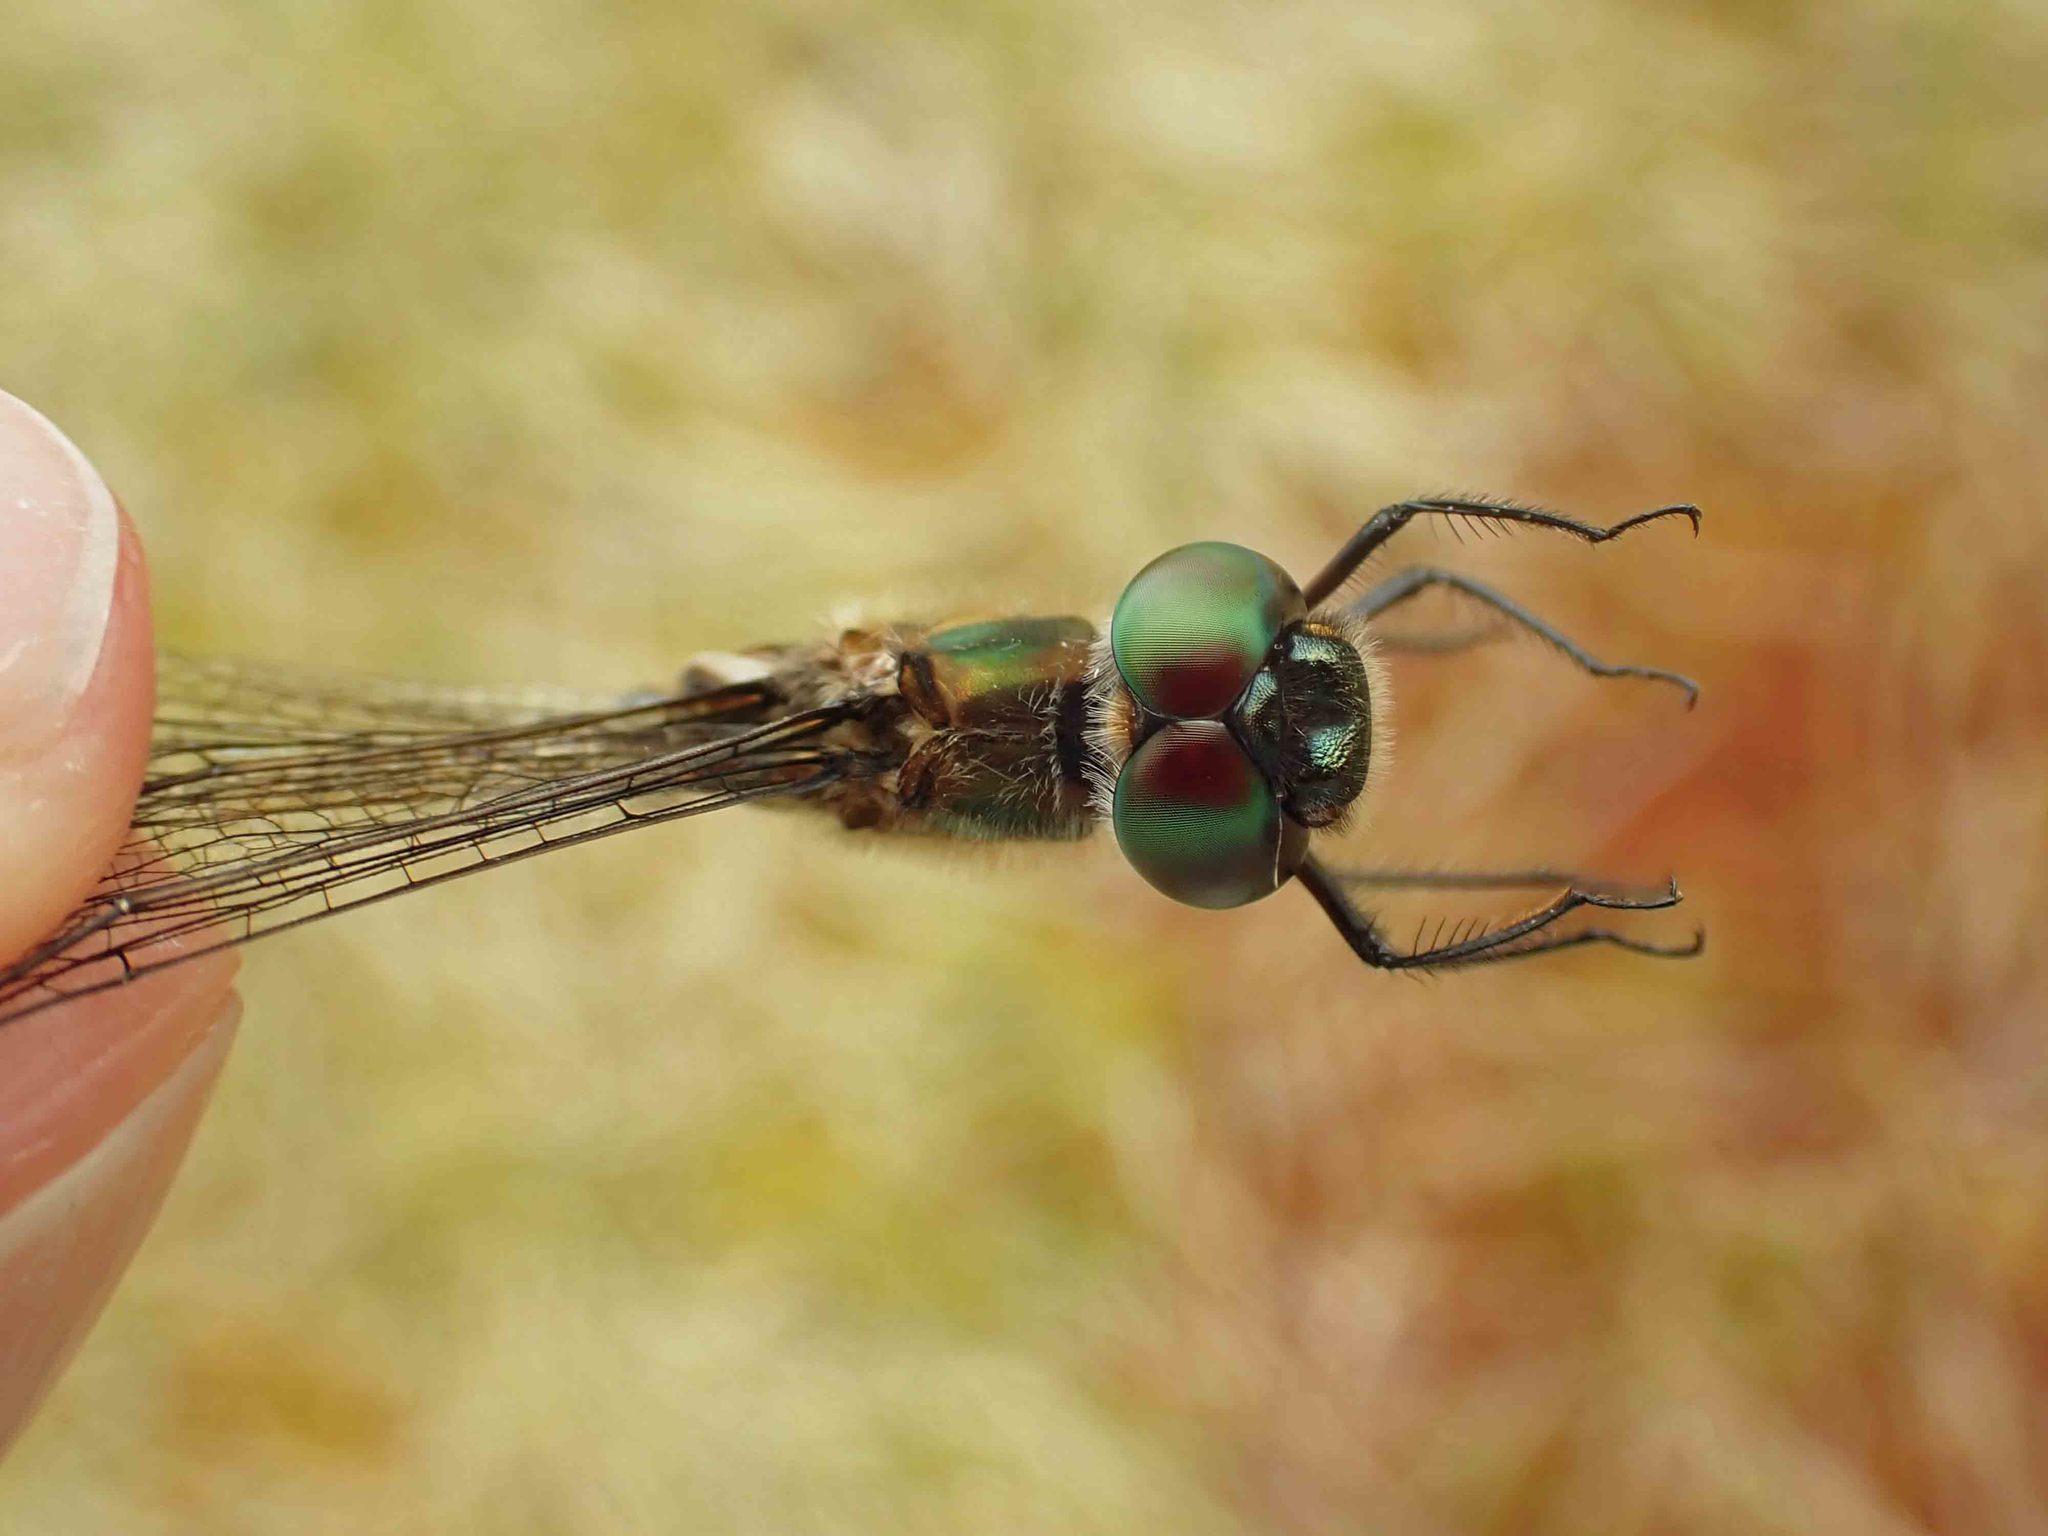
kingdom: Animalia
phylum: Arthropoda
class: Insecta
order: Odonata
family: Corduliidae
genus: Somatochlora
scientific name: Somatochlora franklini
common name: Delicate emerald
